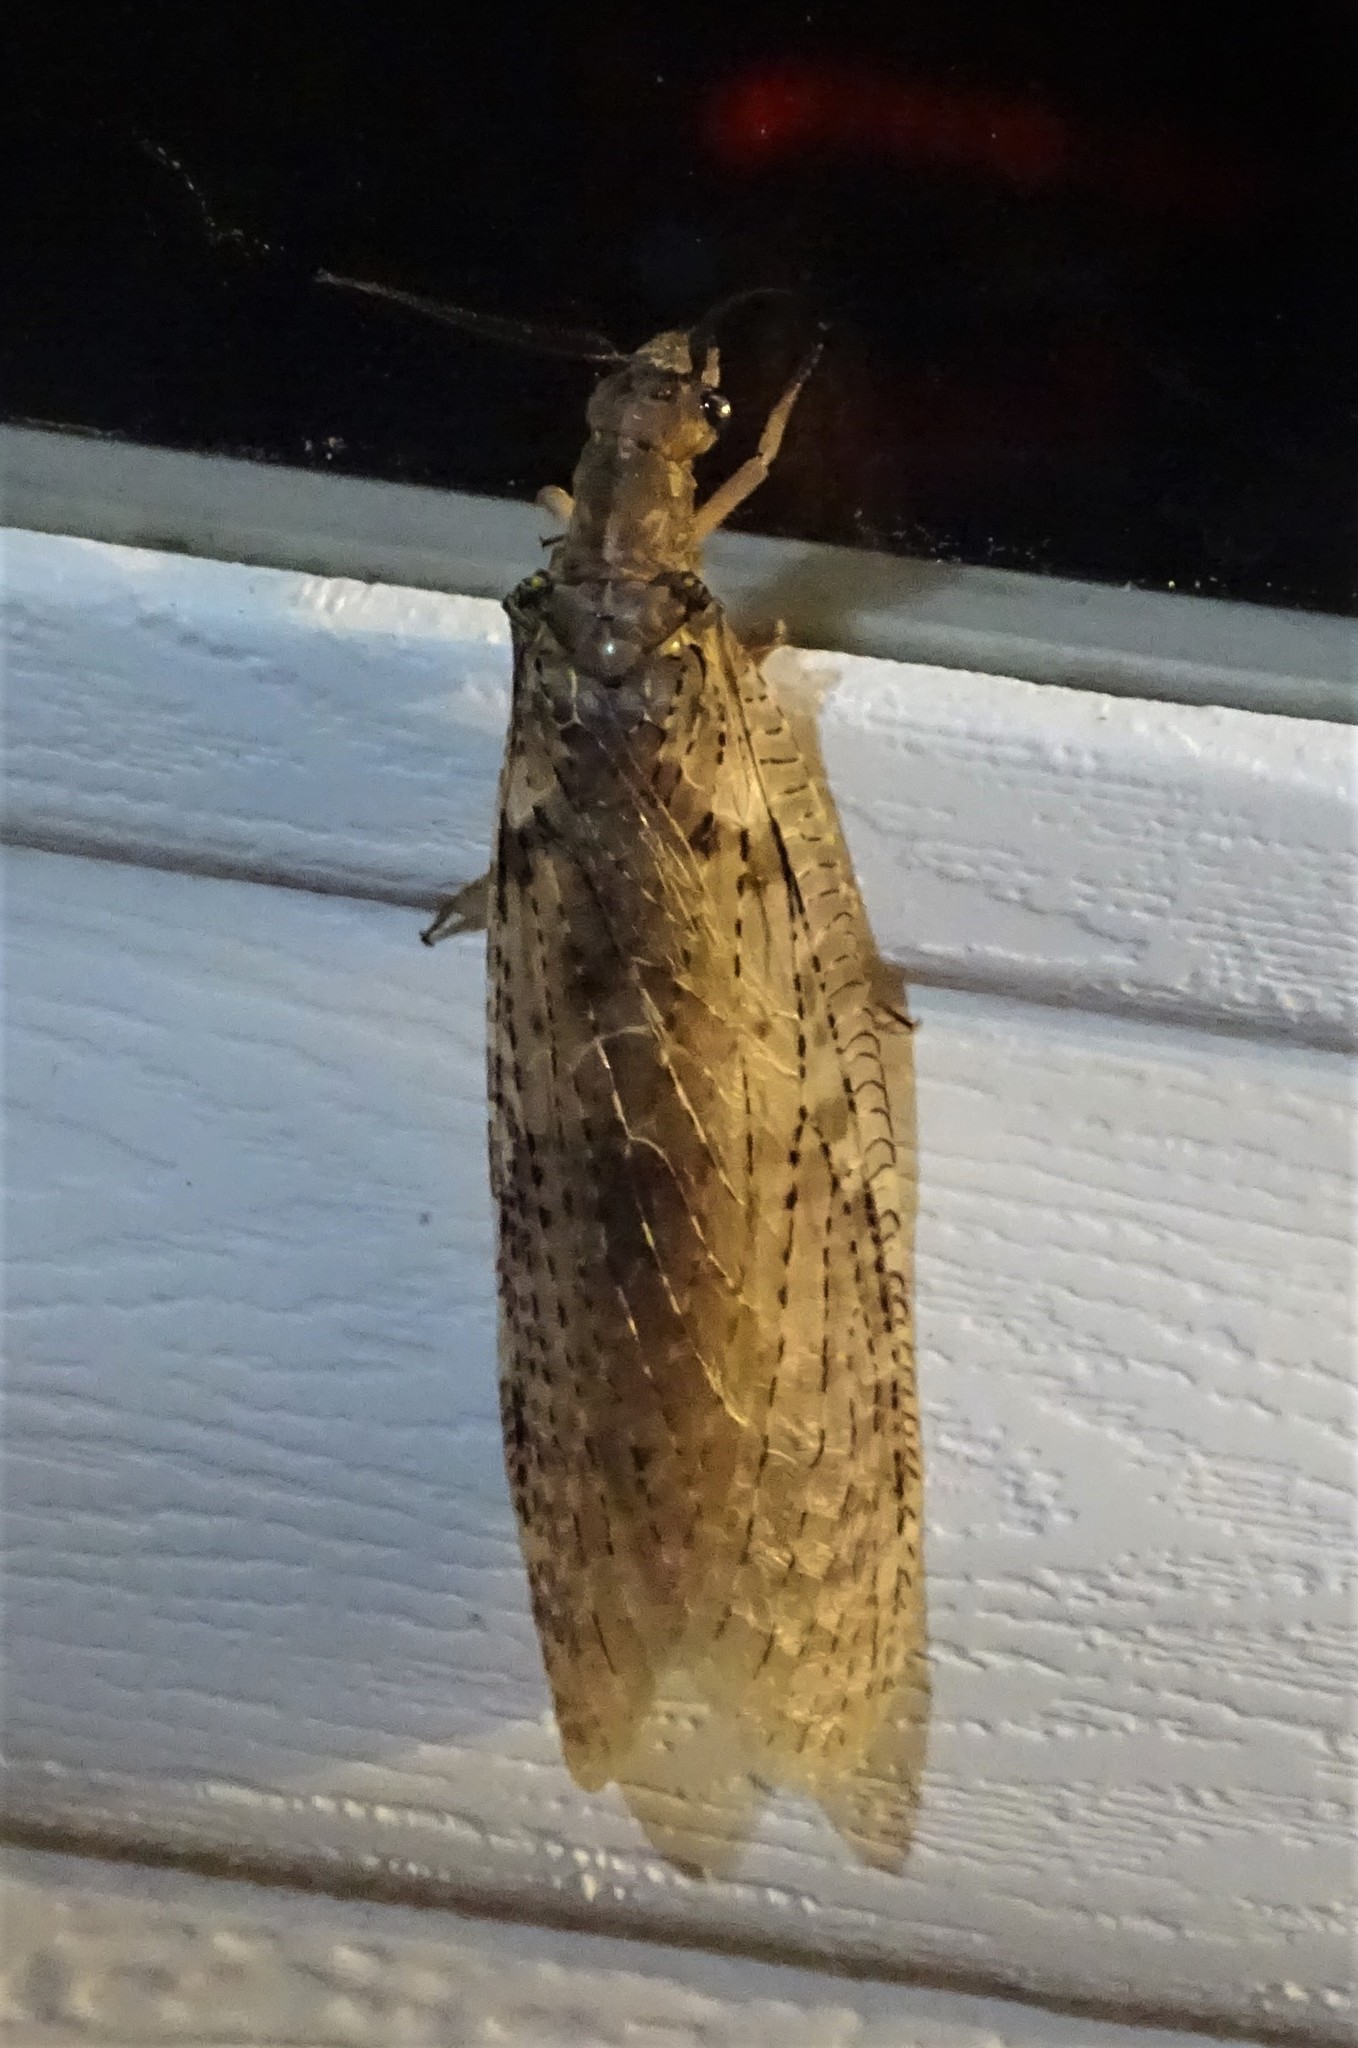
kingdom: Animalia
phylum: Arthropoda
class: Insecta
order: Megaloptera
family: Corydalidae
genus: Chauliodes
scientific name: Chauliodes pectinicornis
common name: Summer fishfly
